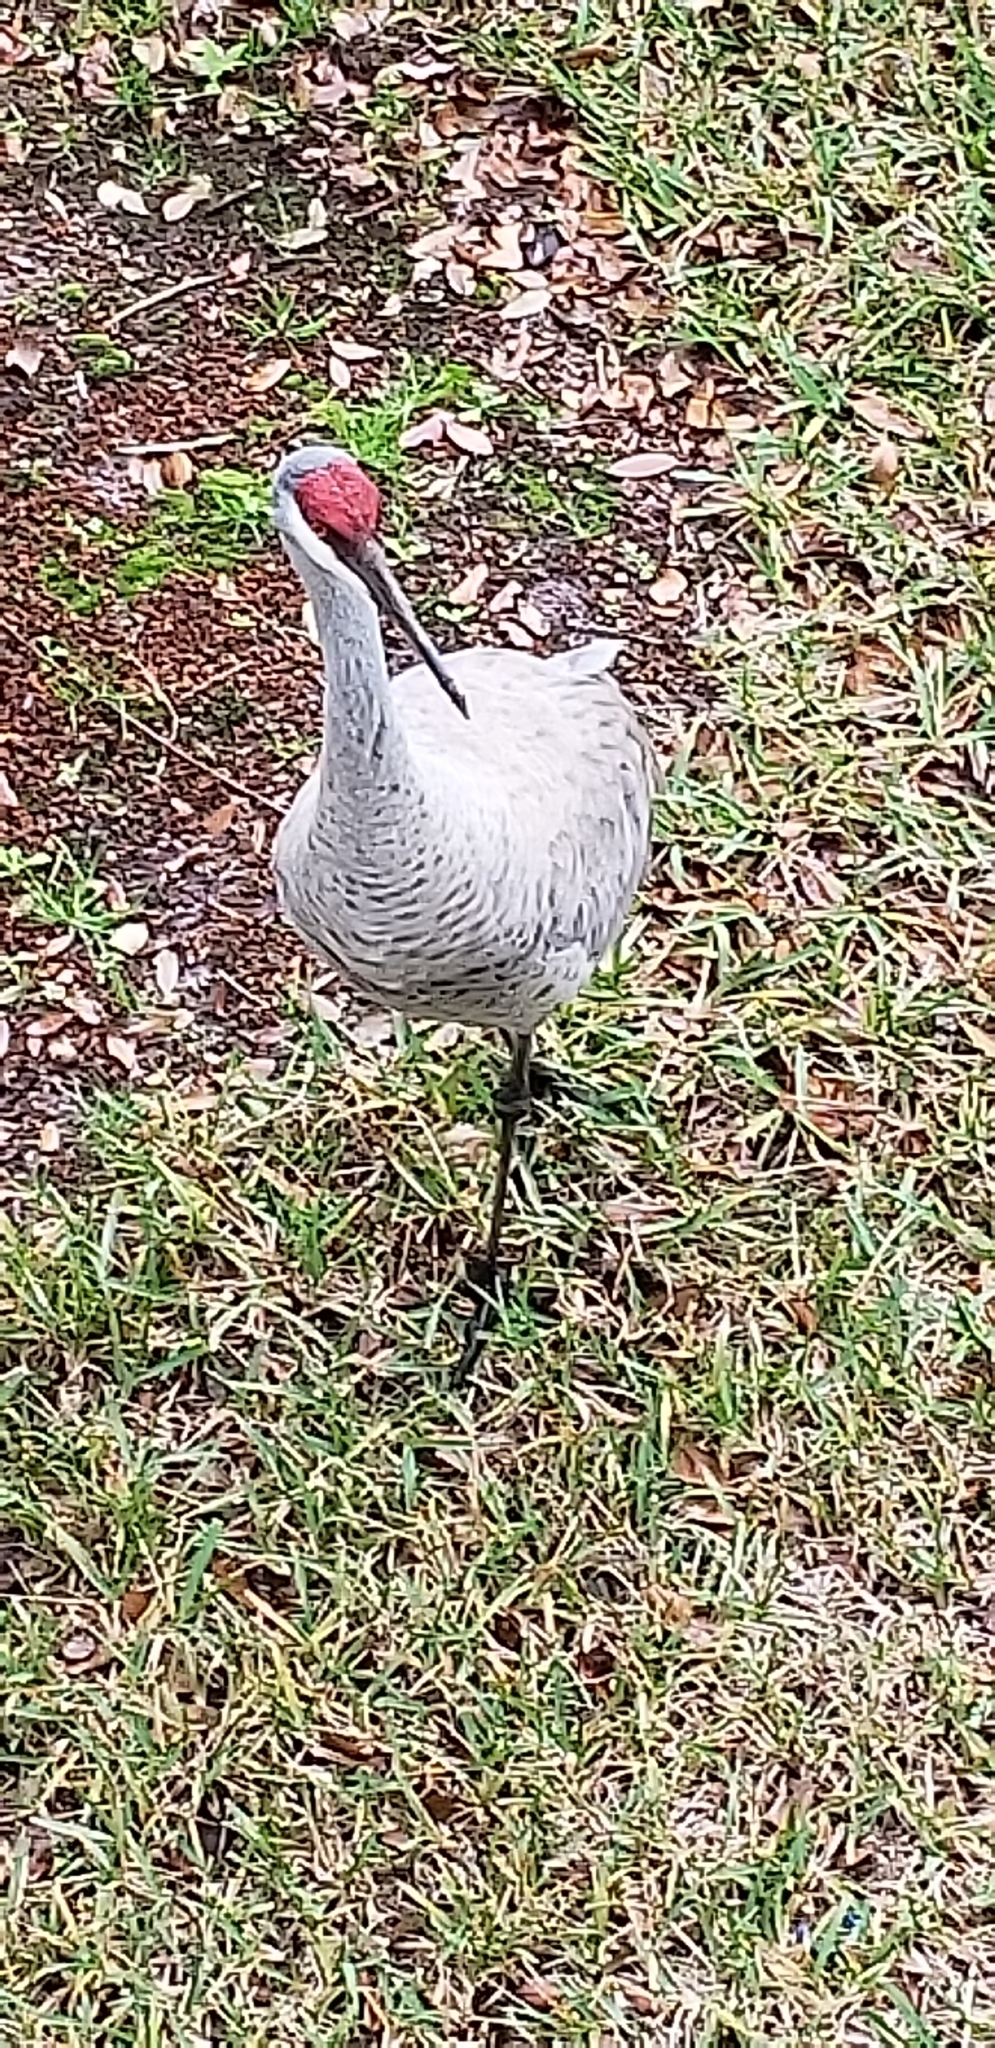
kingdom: Animalia
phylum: Chordata
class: Aves
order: Gruiformes
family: Gruidae
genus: Grus
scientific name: Grus canadensis
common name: Sandhill crane
